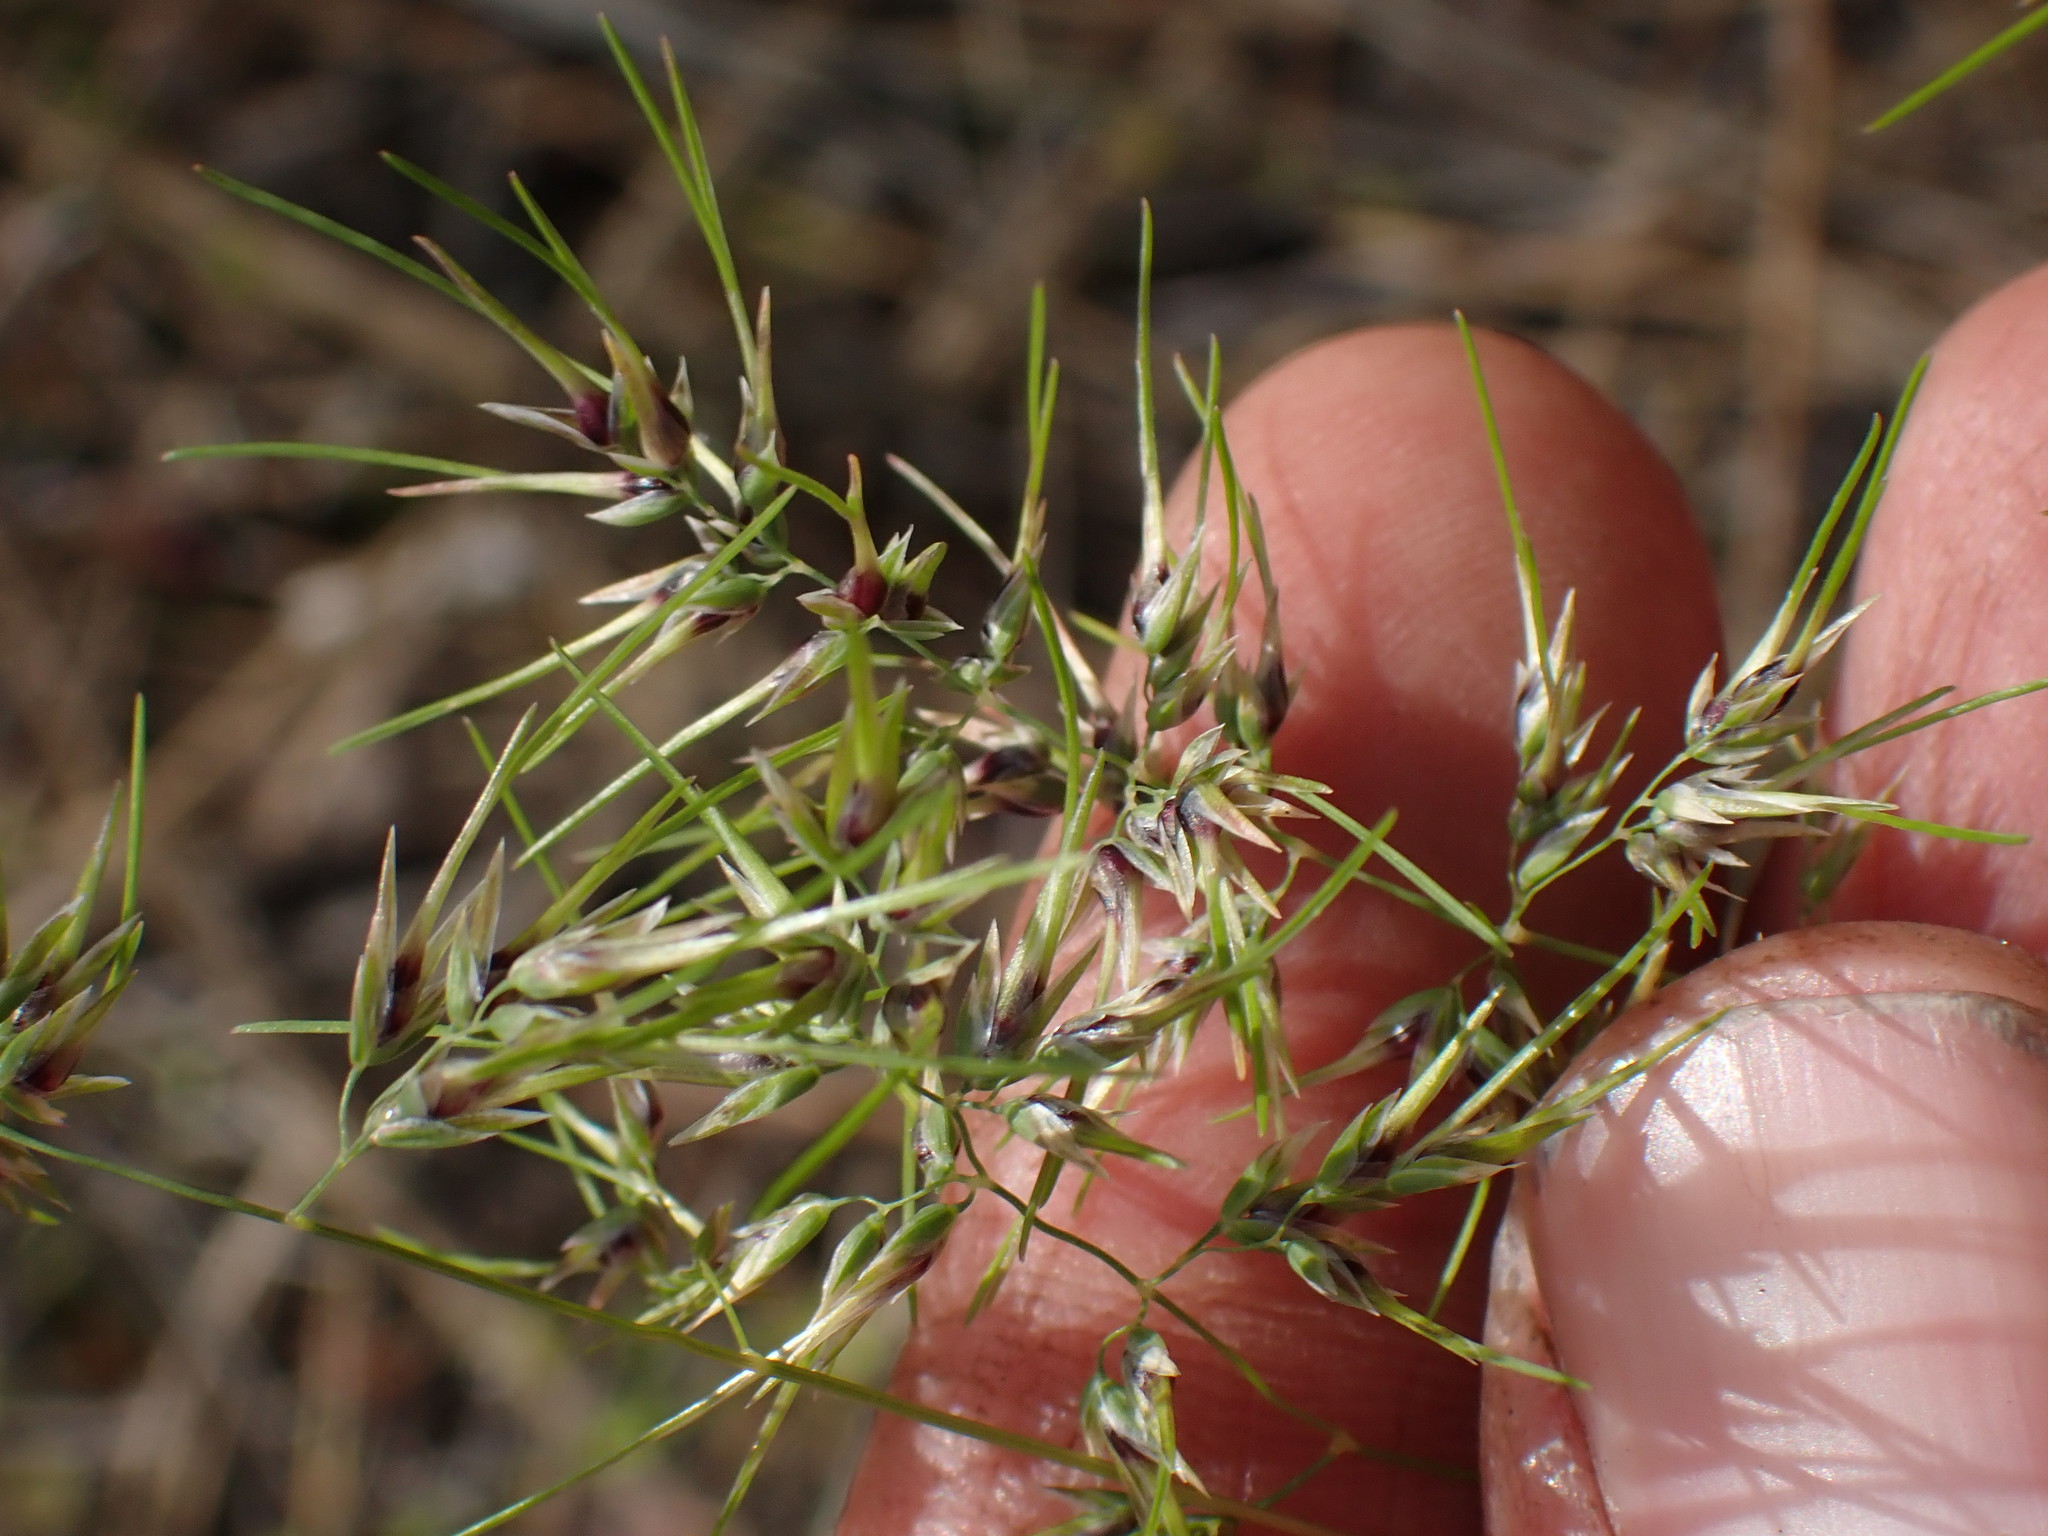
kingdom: Plantae
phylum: Tracheophyta
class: Liliopsida
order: Poales
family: Poaceae
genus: Poa
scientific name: Poa bulbosa
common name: Bulbous bluegrass
